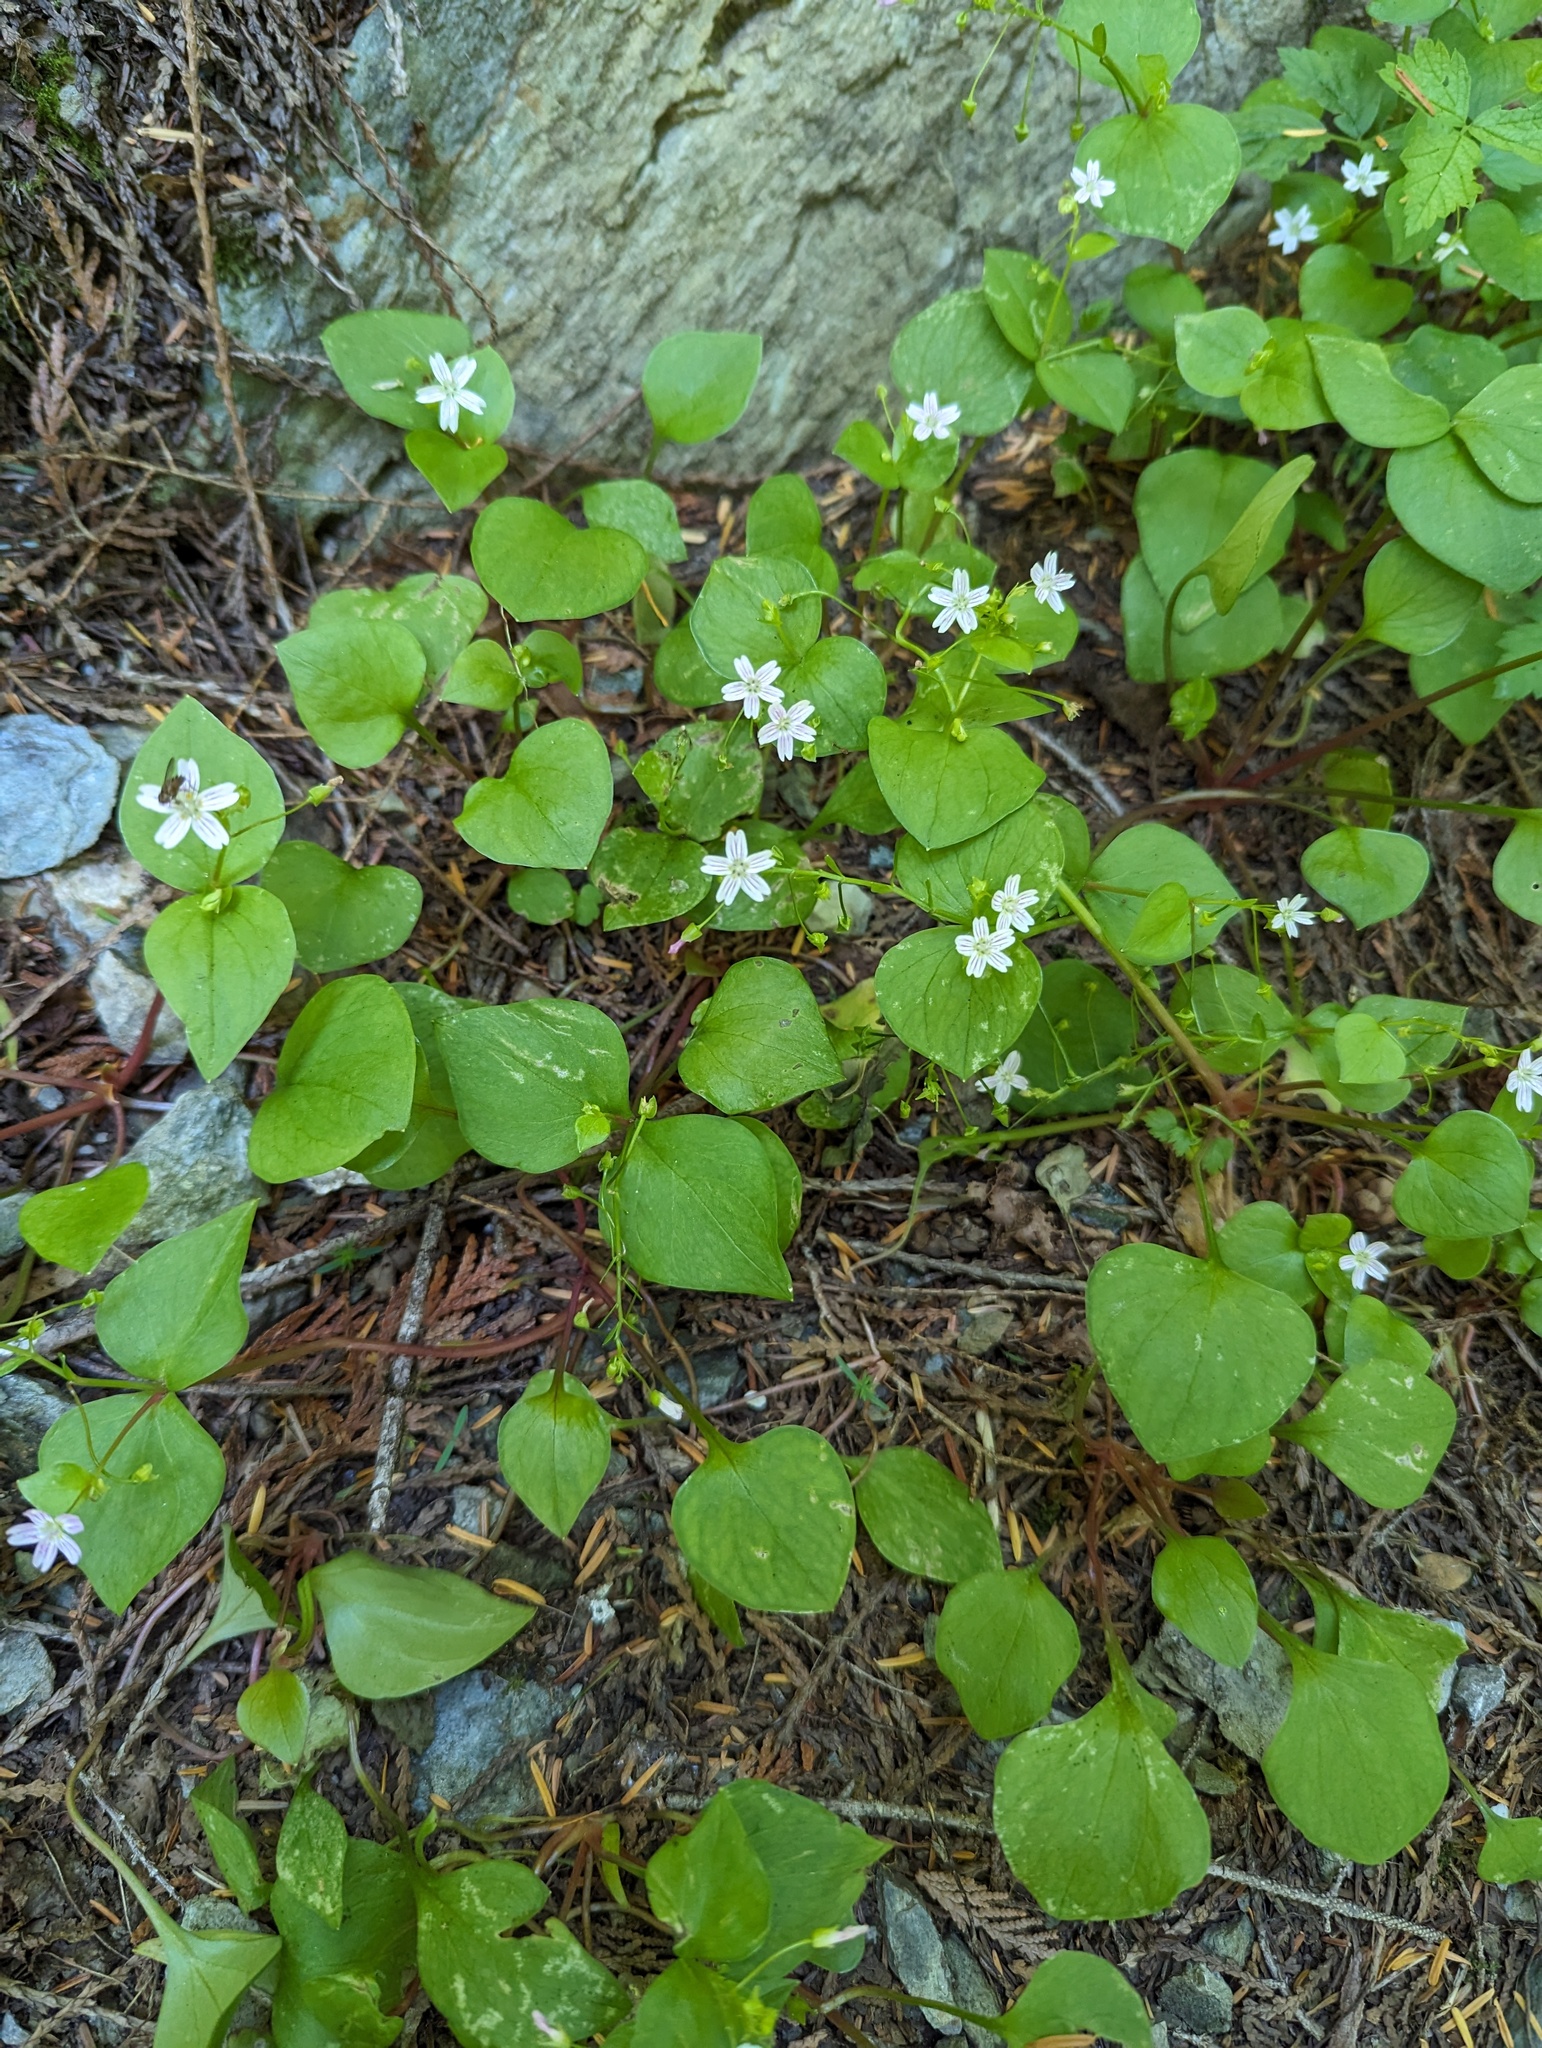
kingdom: Plantae
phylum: Tracheophyta
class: Magnoliopsida
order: Caryophyllales
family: Montiaceae
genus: Claytonia
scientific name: Claytonia sibirica
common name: Pink purslane
